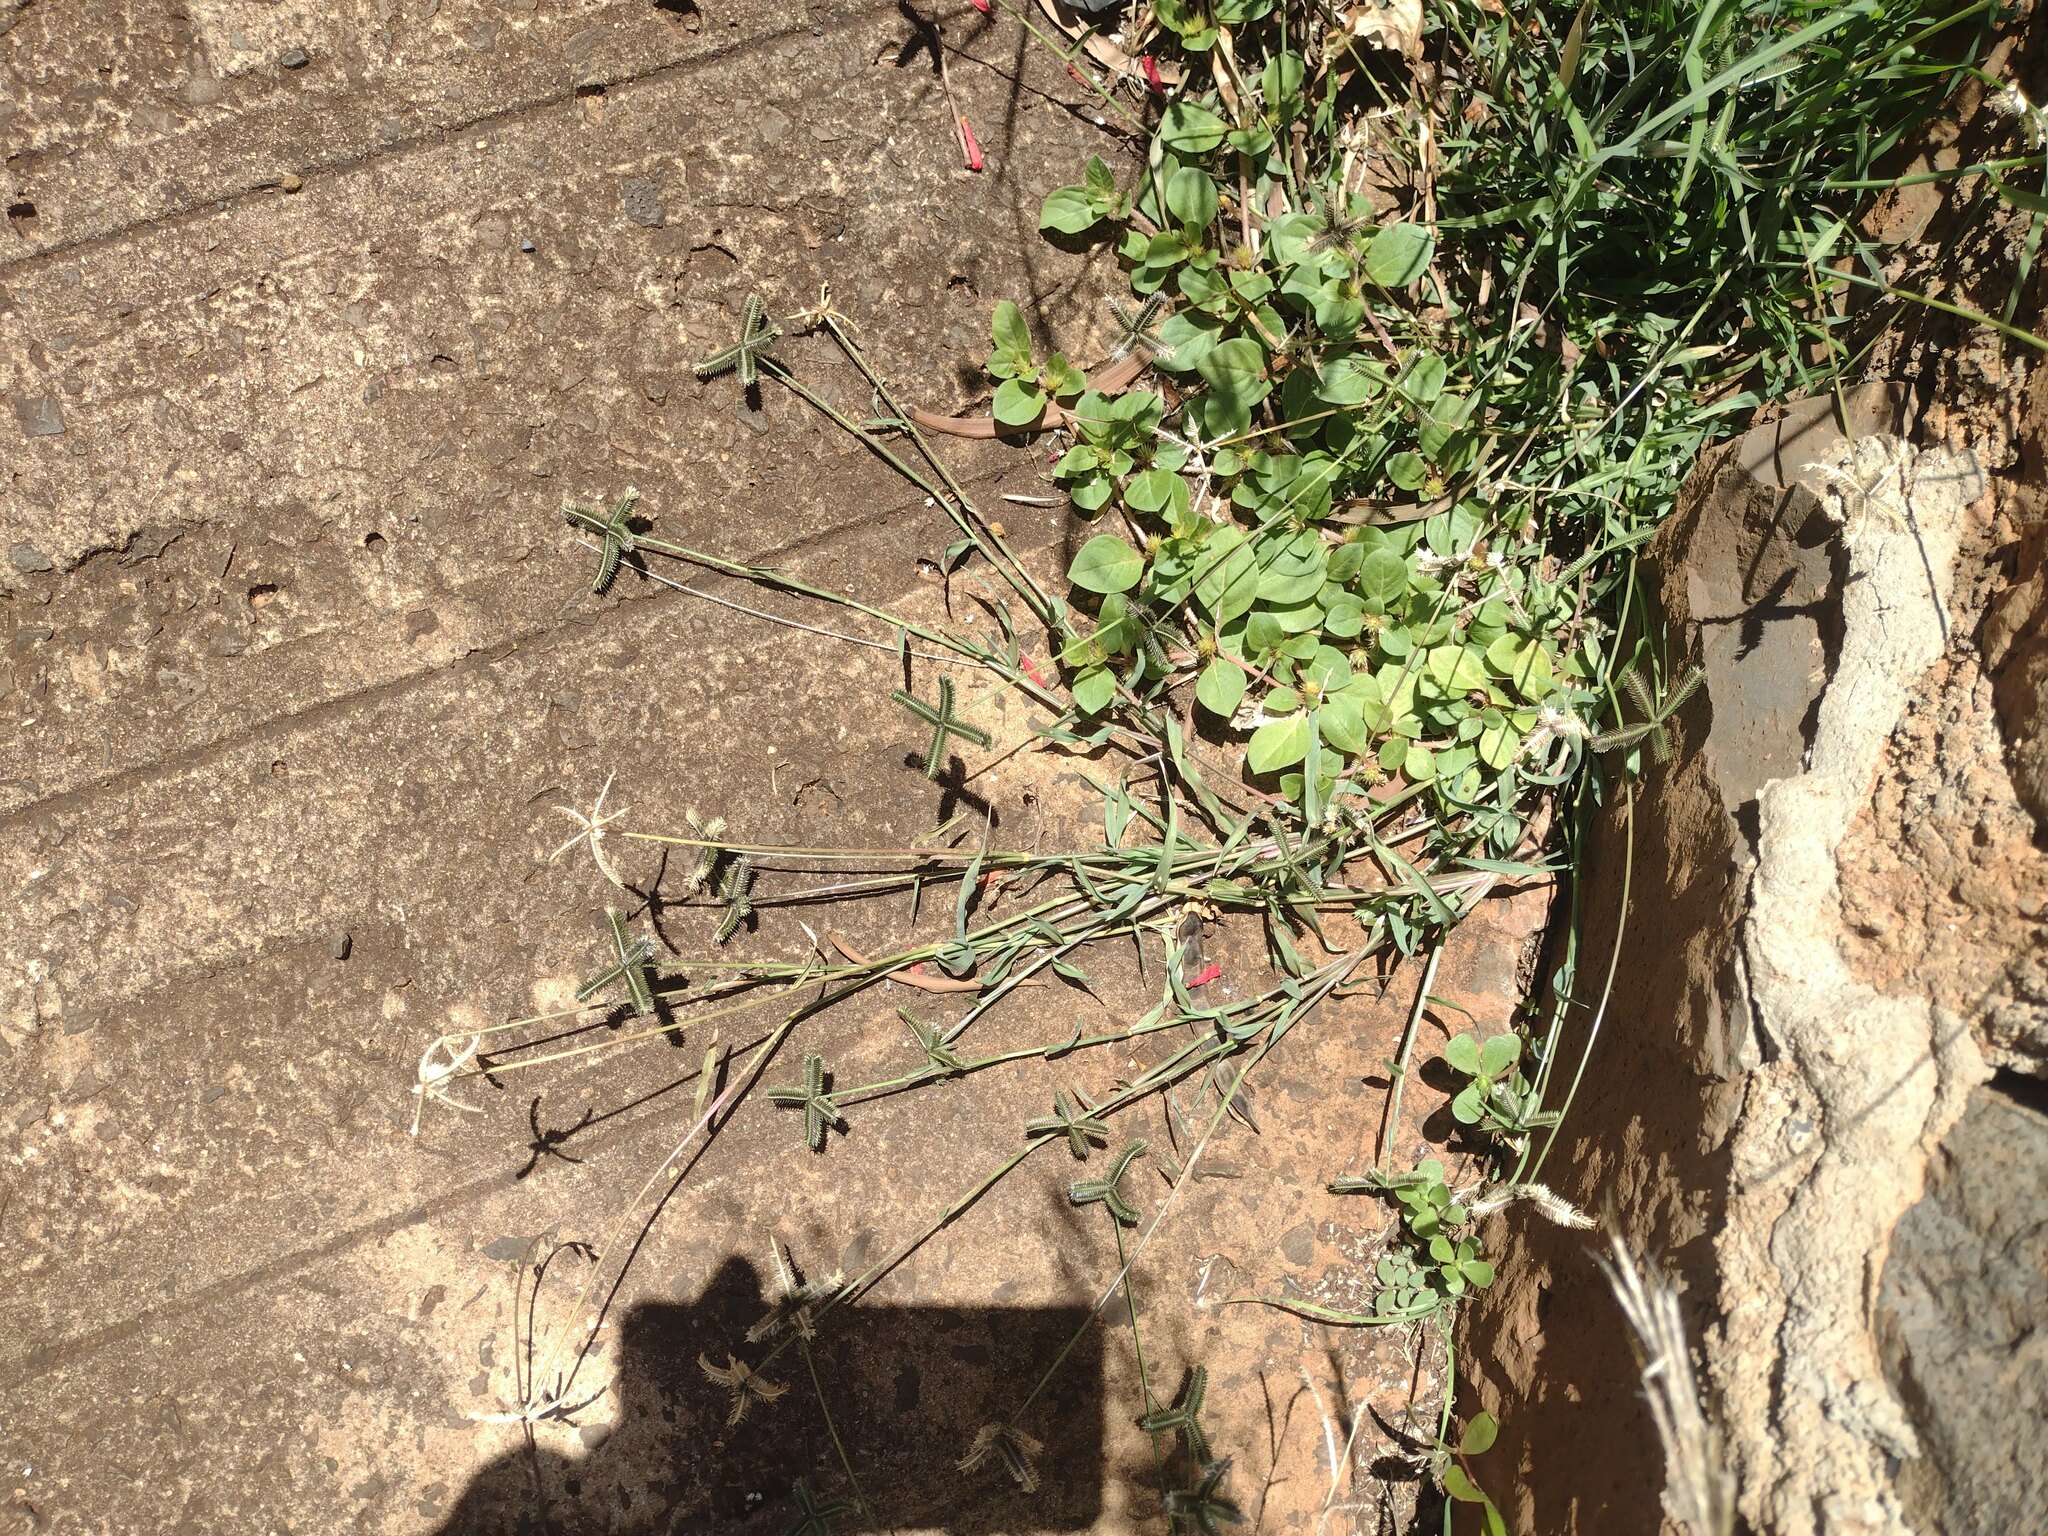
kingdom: Plantae
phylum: Tracheophyta
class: Liliopsida
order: Poales
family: Poaceae
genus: Dactyloctenium
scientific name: Dactyloctenium aegyptium
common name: Egyptian grass
